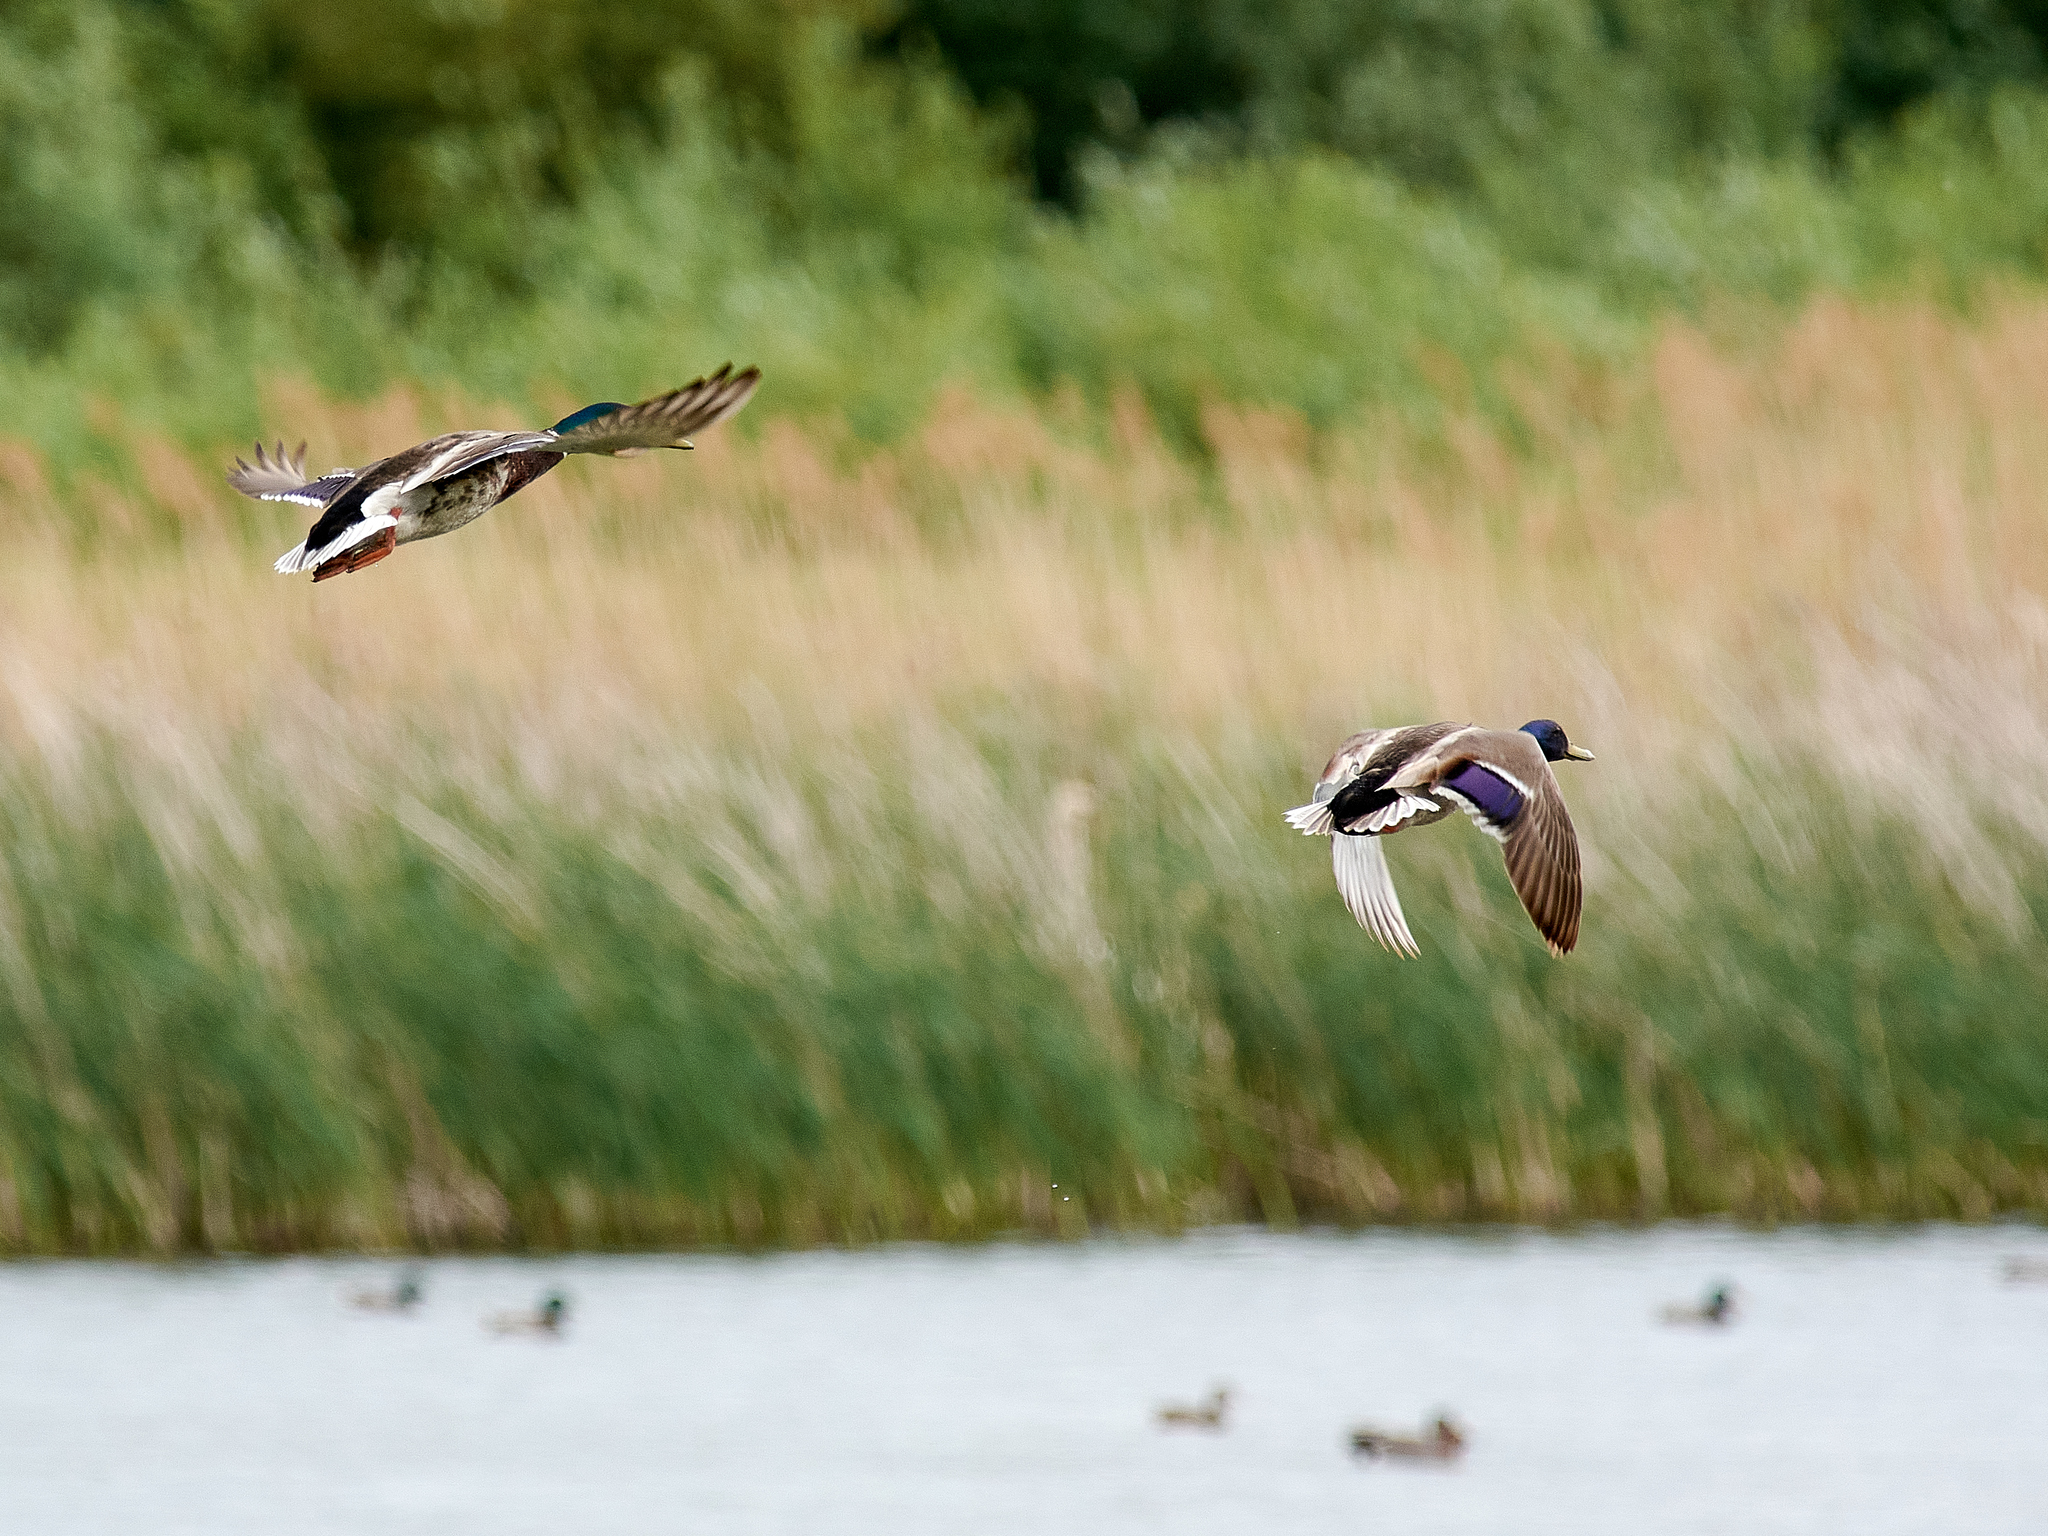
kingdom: Animalia
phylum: Chordata
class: Aves
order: Anseriformes
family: Anatidae
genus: Anas
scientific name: Anas platyrhynchos
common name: Mallard
